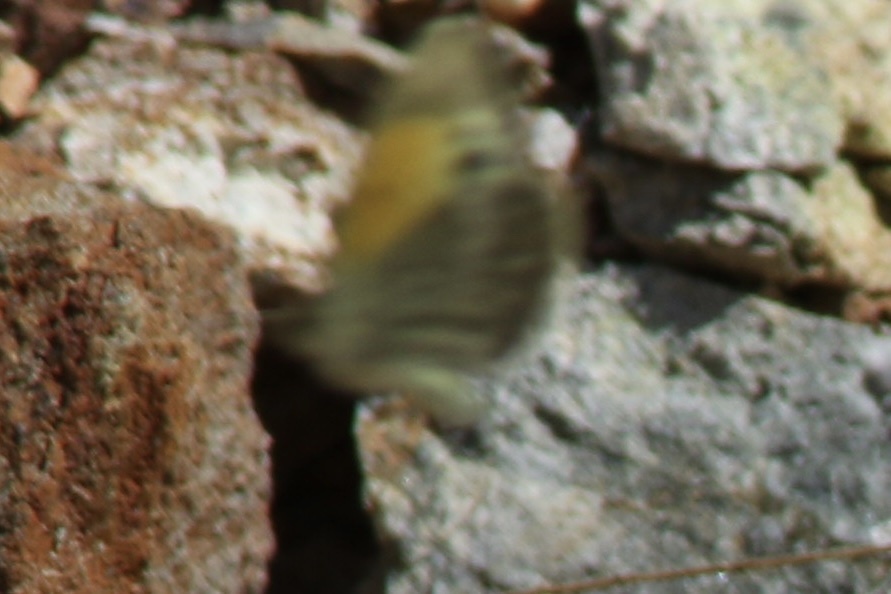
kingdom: Animalia
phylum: Arthropoda
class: Insecta
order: Lepidoptera
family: Pieridae
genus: Nathalis
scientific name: Nathalis iole
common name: Dainty sulphur
